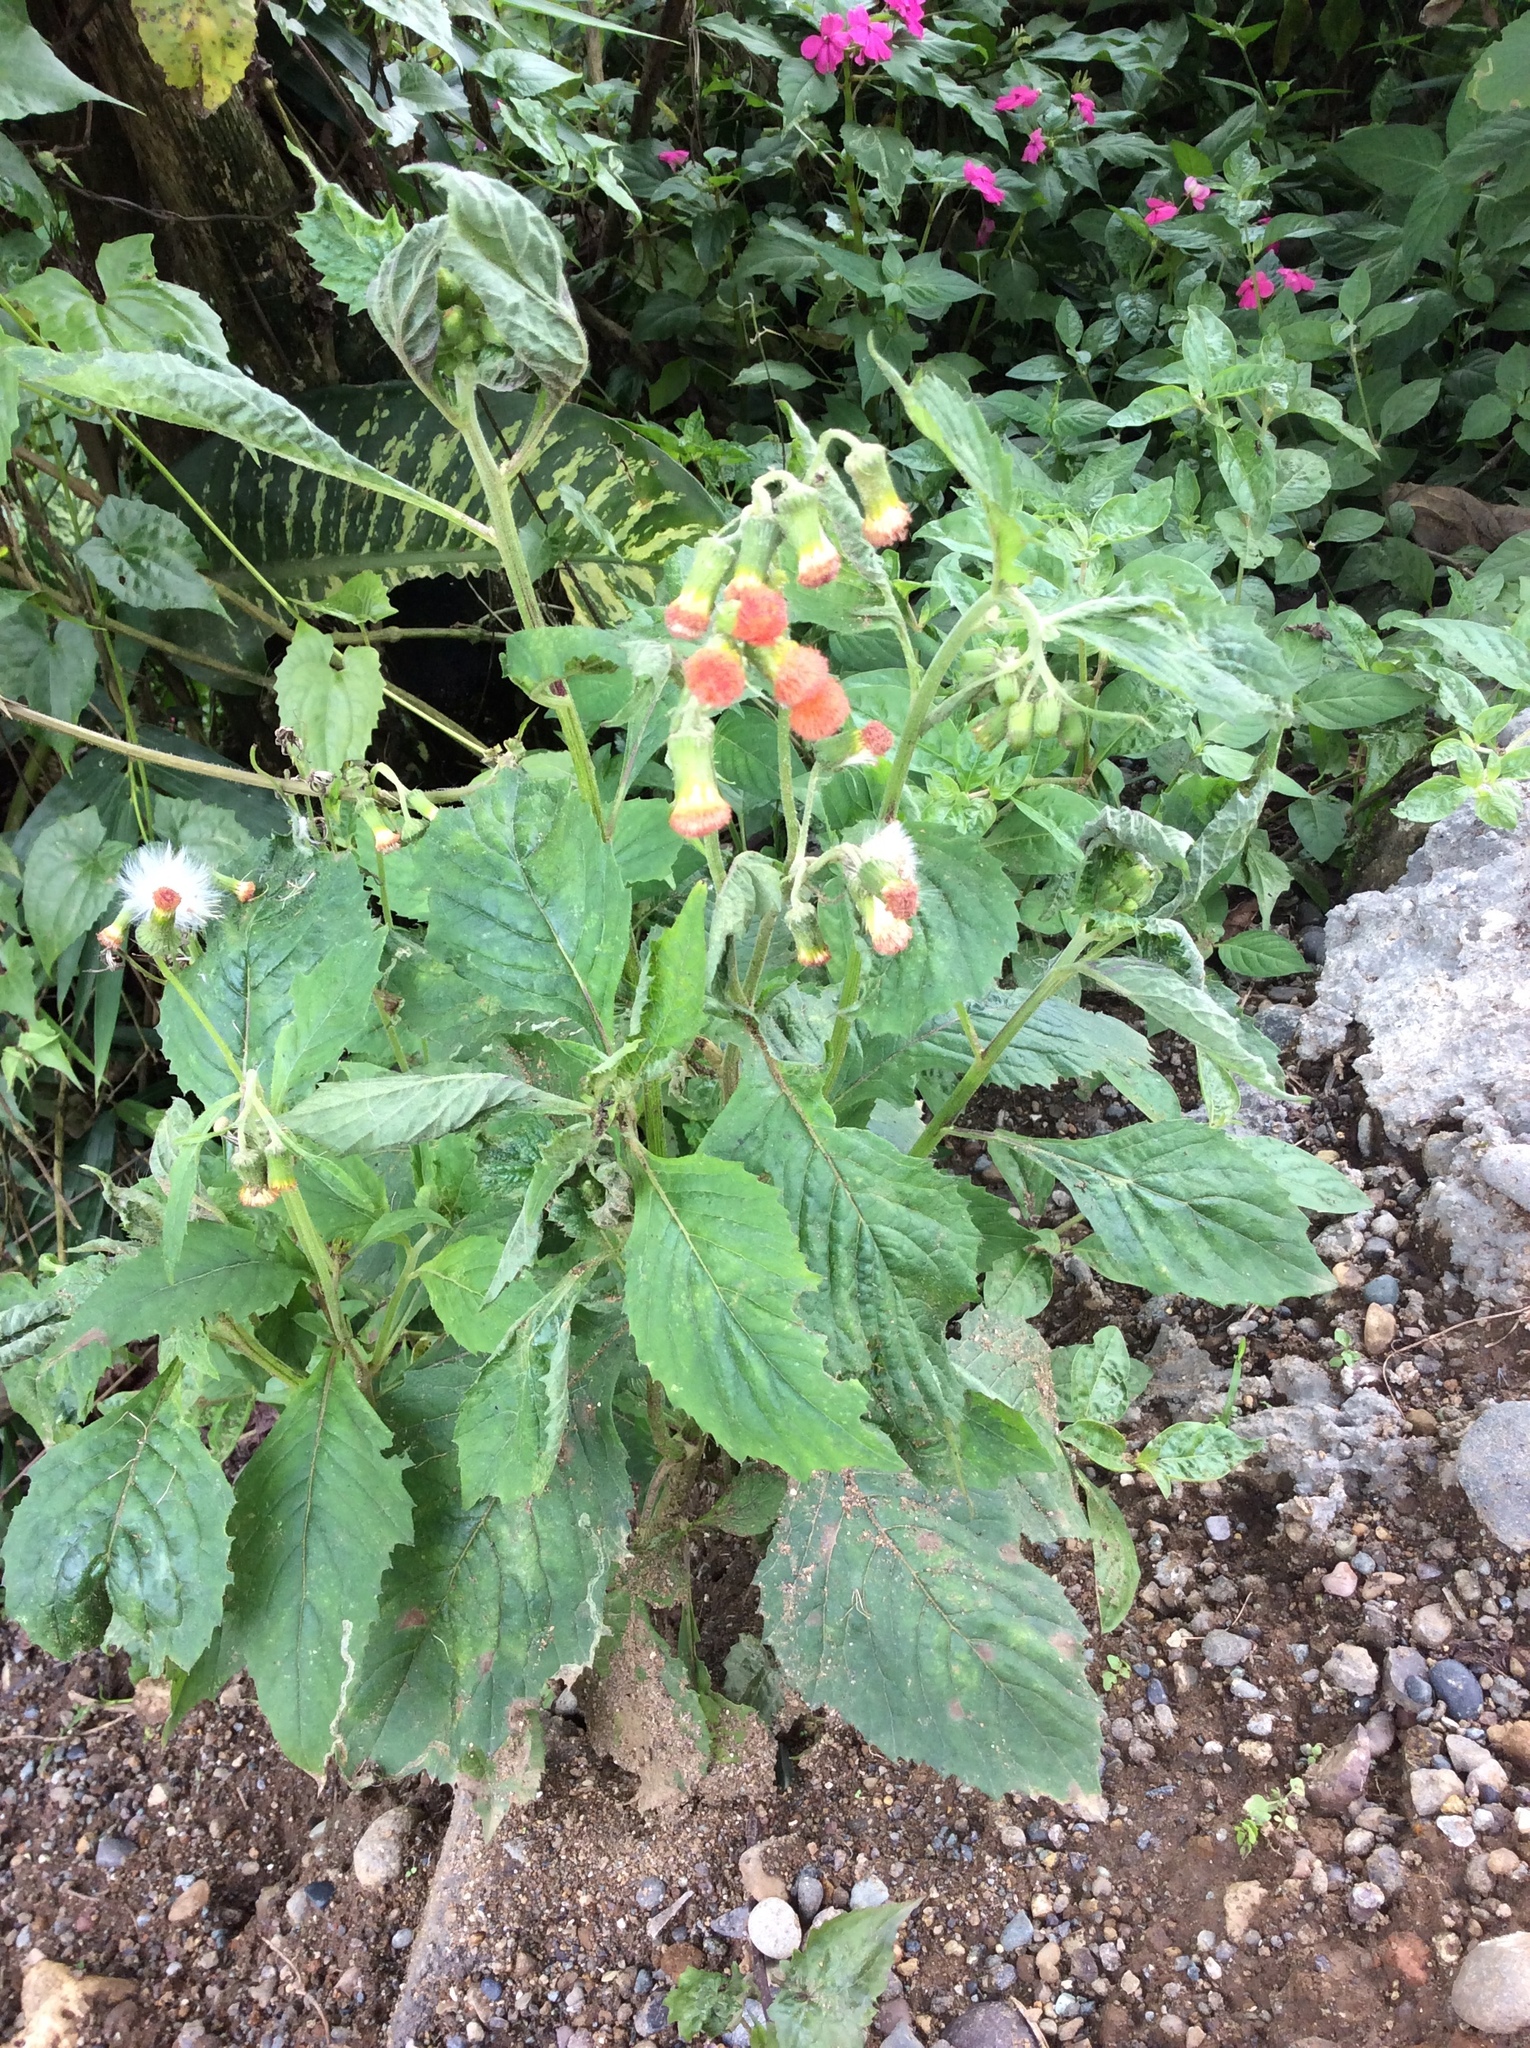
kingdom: Plantae
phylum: Tracheophyta
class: Magnoliopsida
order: Asterales
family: Asteraceae
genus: Crassocephalum
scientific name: Crassocephalum crepidioides
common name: Redflower ragleaf
